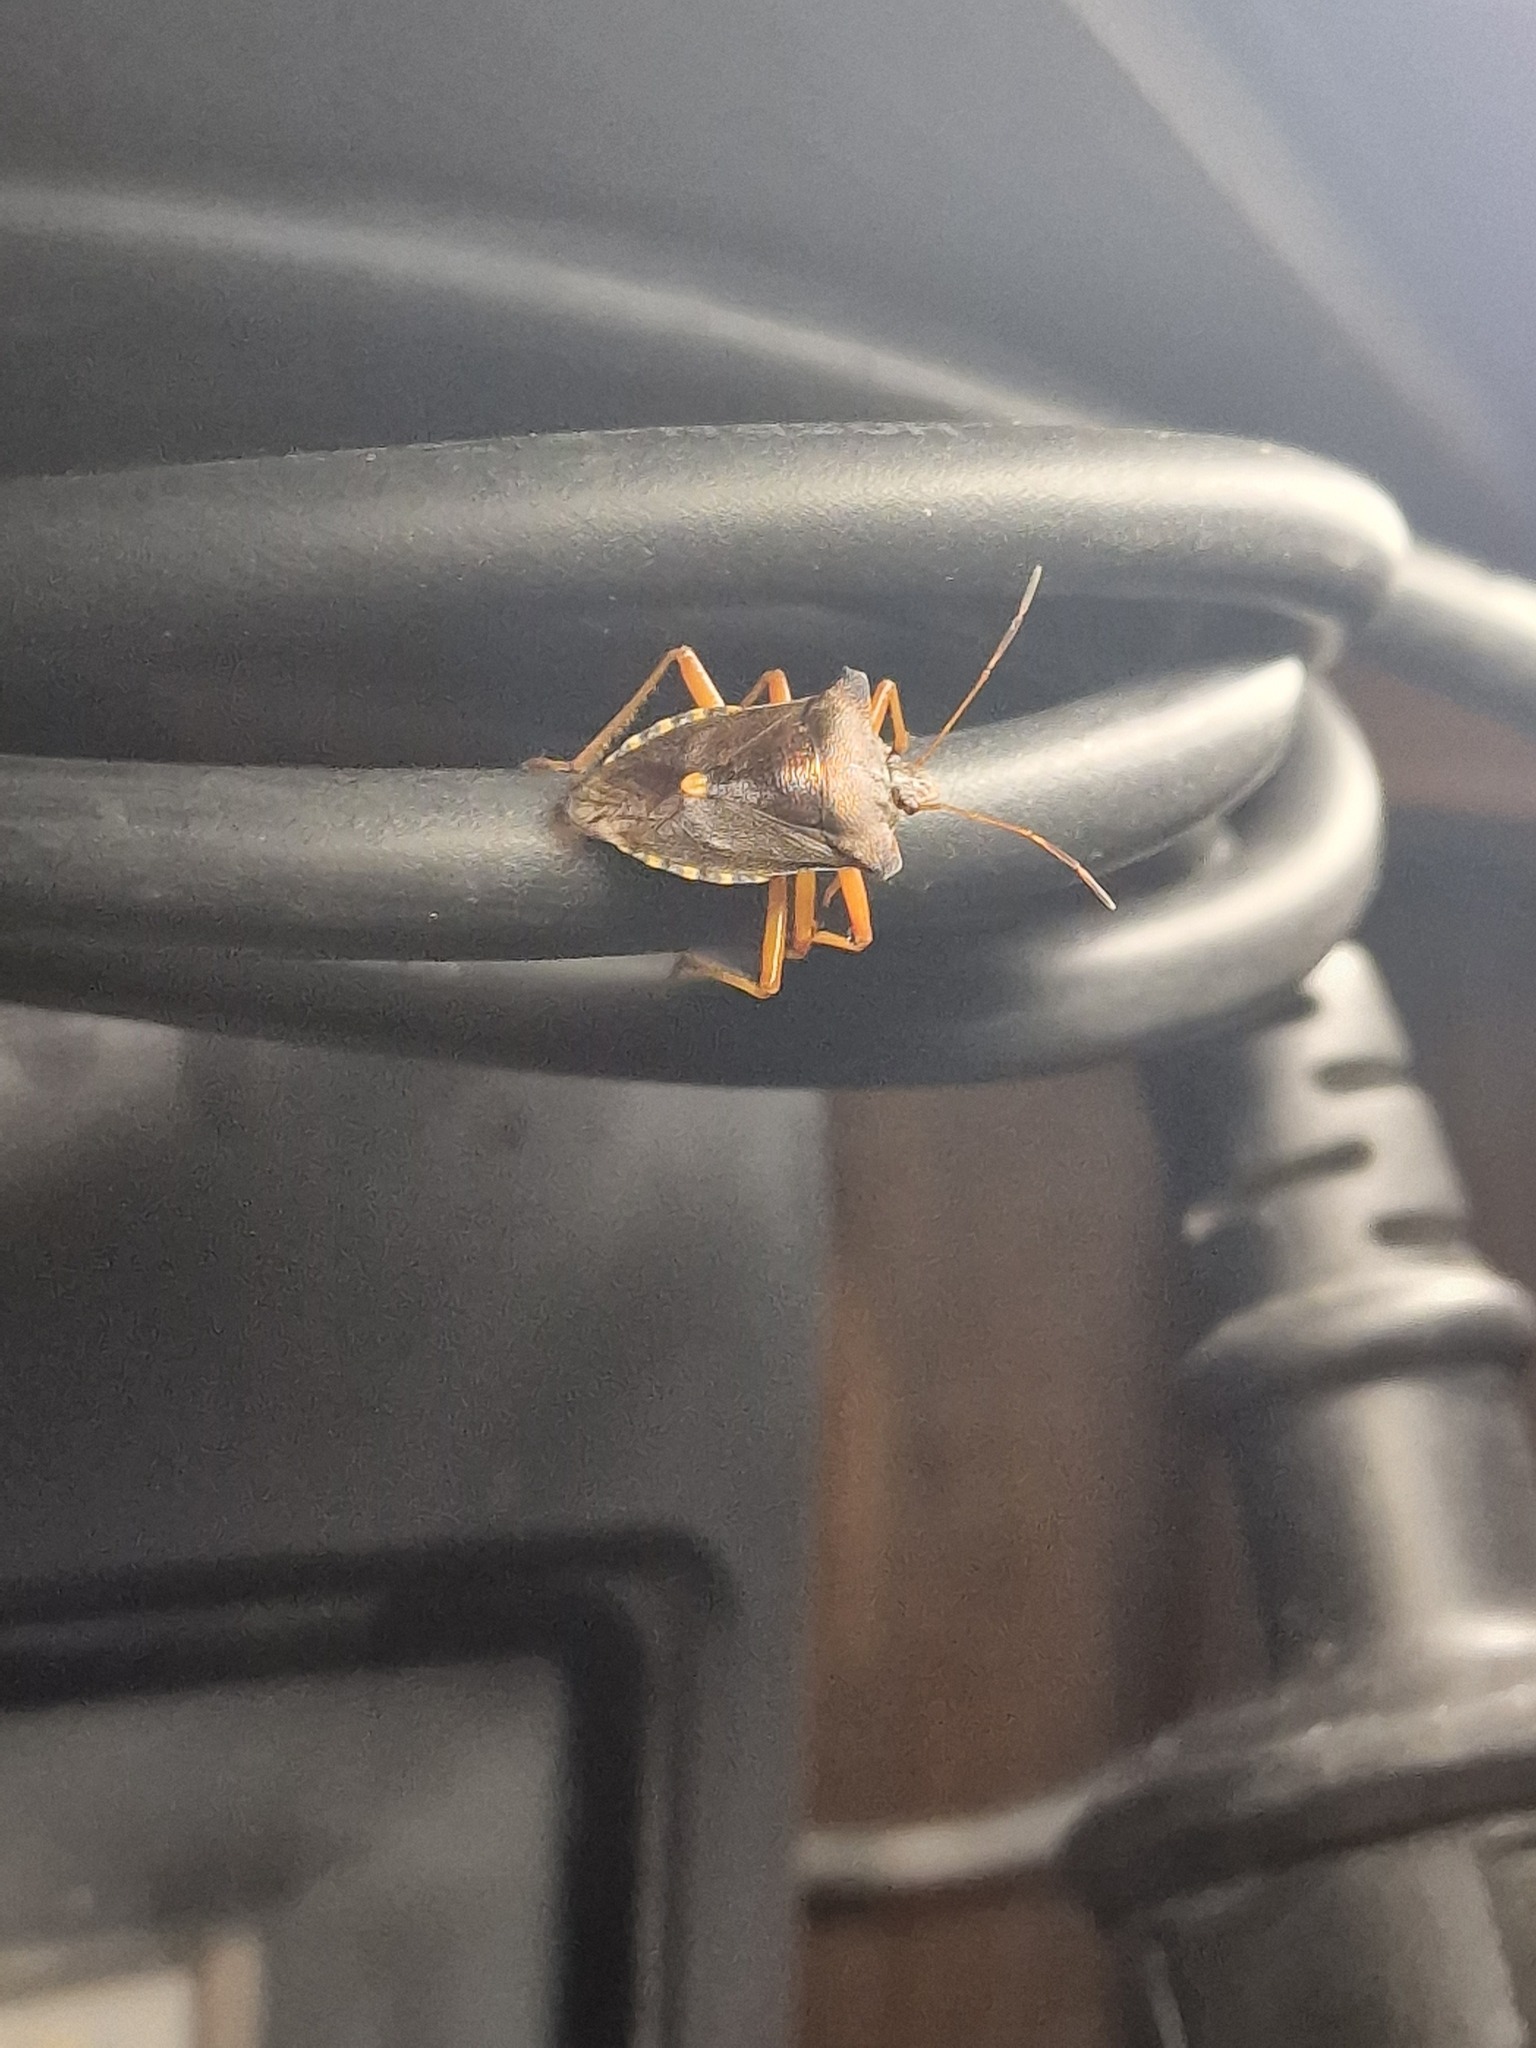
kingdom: Animalia
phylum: Arthropoda
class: Insecta
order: Hemiptera
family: Pentatomidae
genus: Pentatoma
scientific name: Pentatoma rufipes
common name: Forest bug
